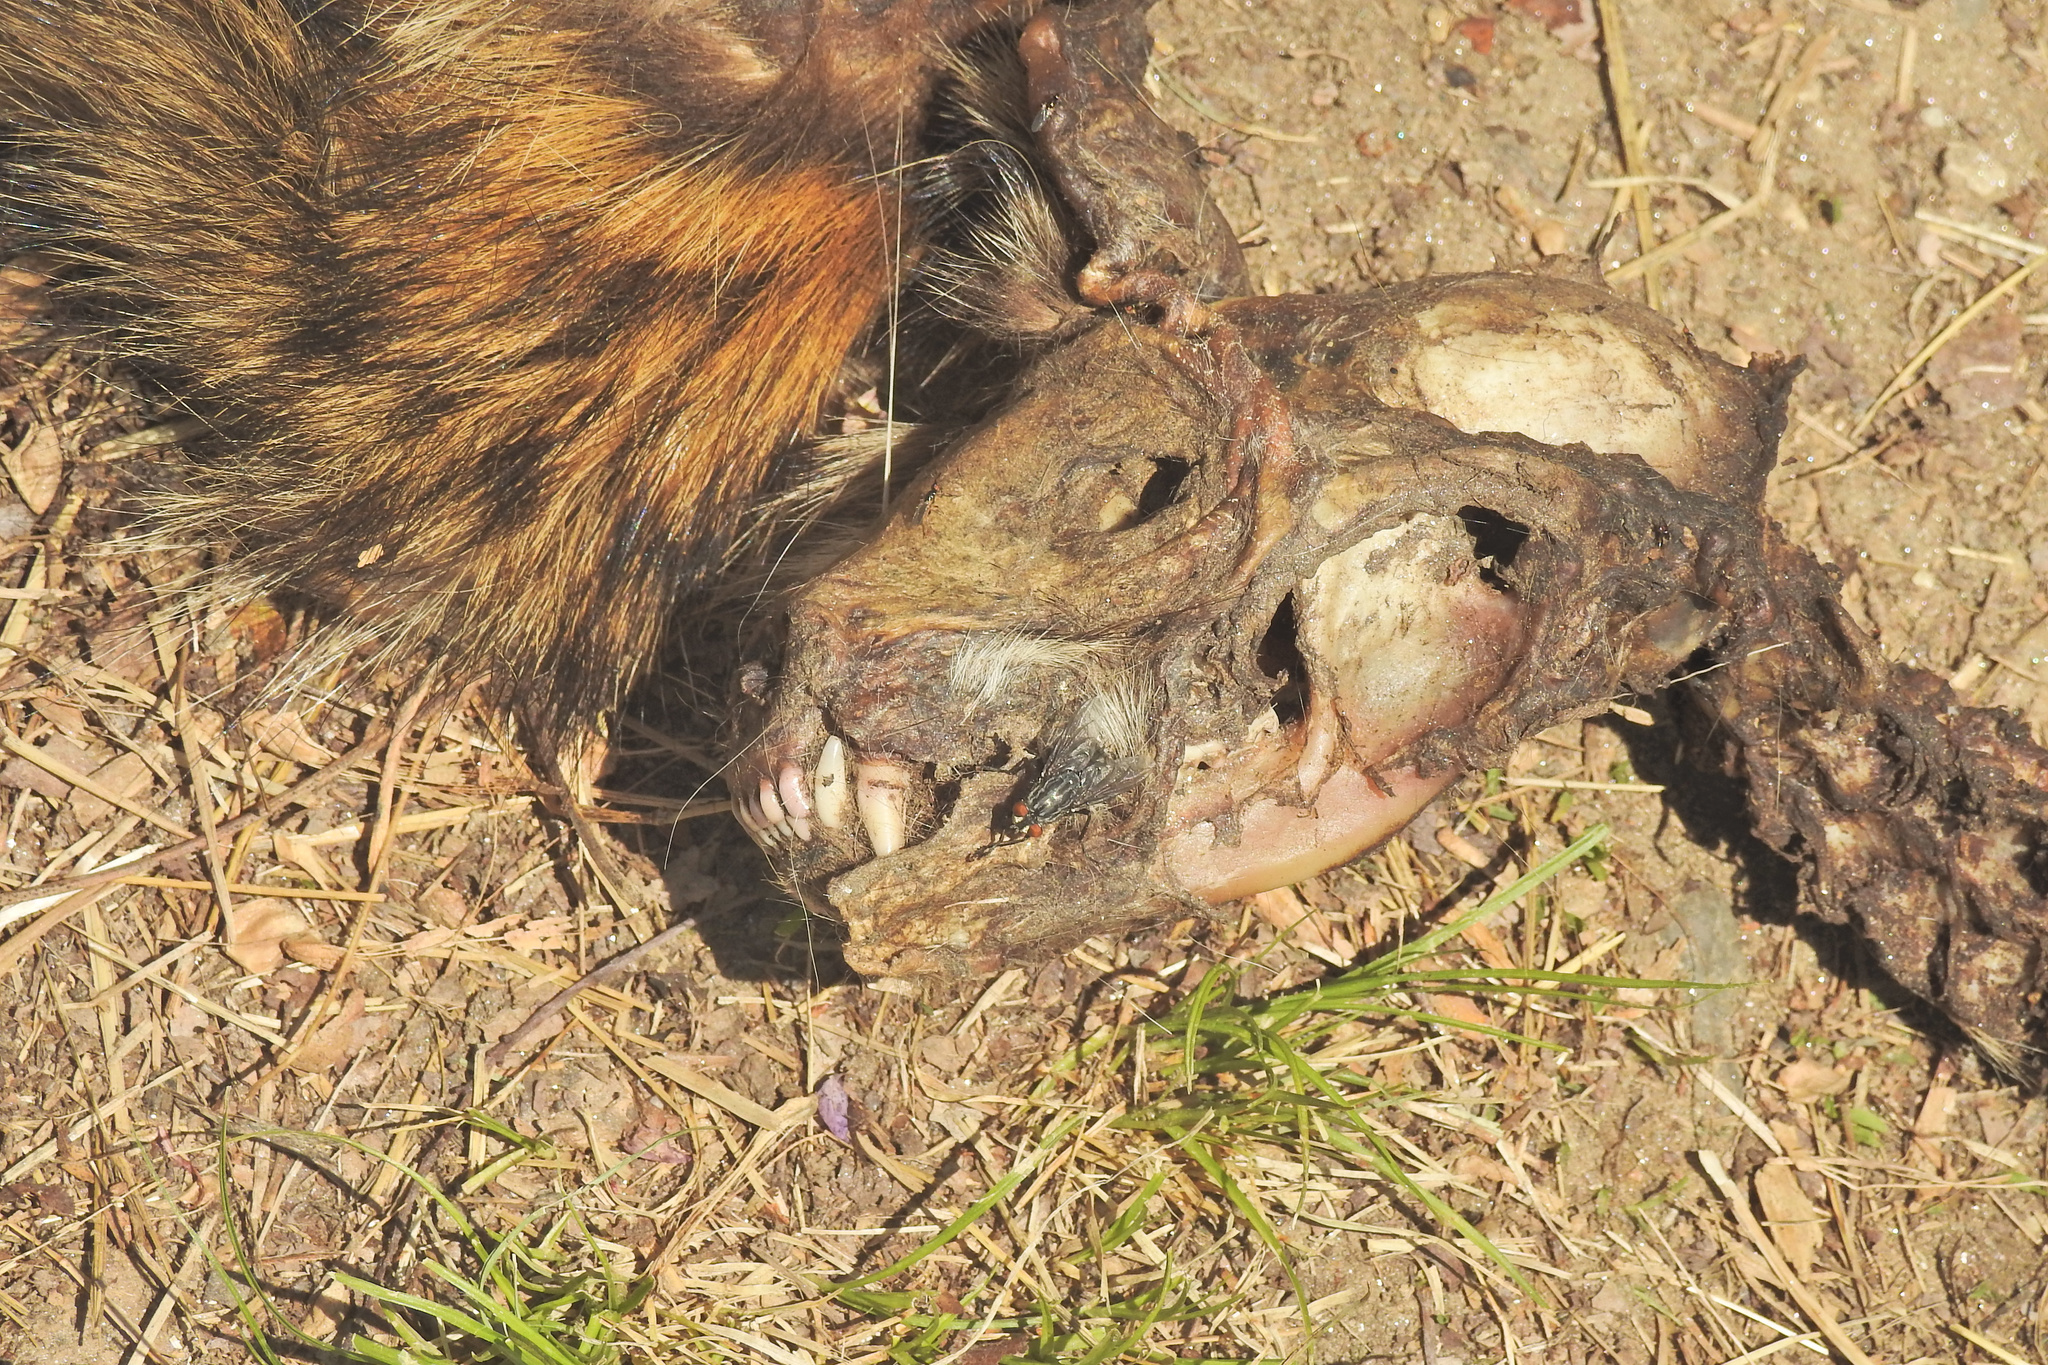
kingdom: Animalia
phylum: Chordata
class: Mammalia
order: Carnivora
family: Procyonidae
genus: Procyon
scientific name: Procyon lotor
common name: Raccoon
